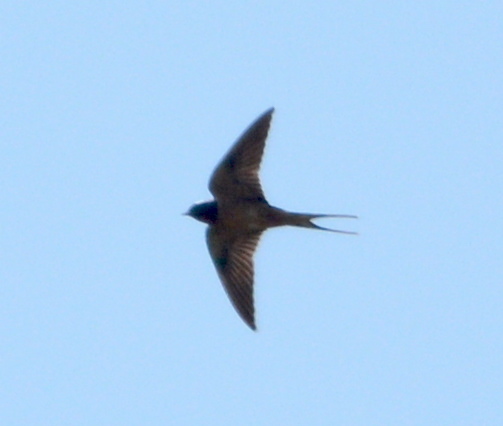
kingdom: Animalia
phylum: Chordata
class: Aves
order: Passeriformes
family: Hirundinidae
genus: Hirundo
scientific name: Hirundo rustica
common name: Barn swallow
